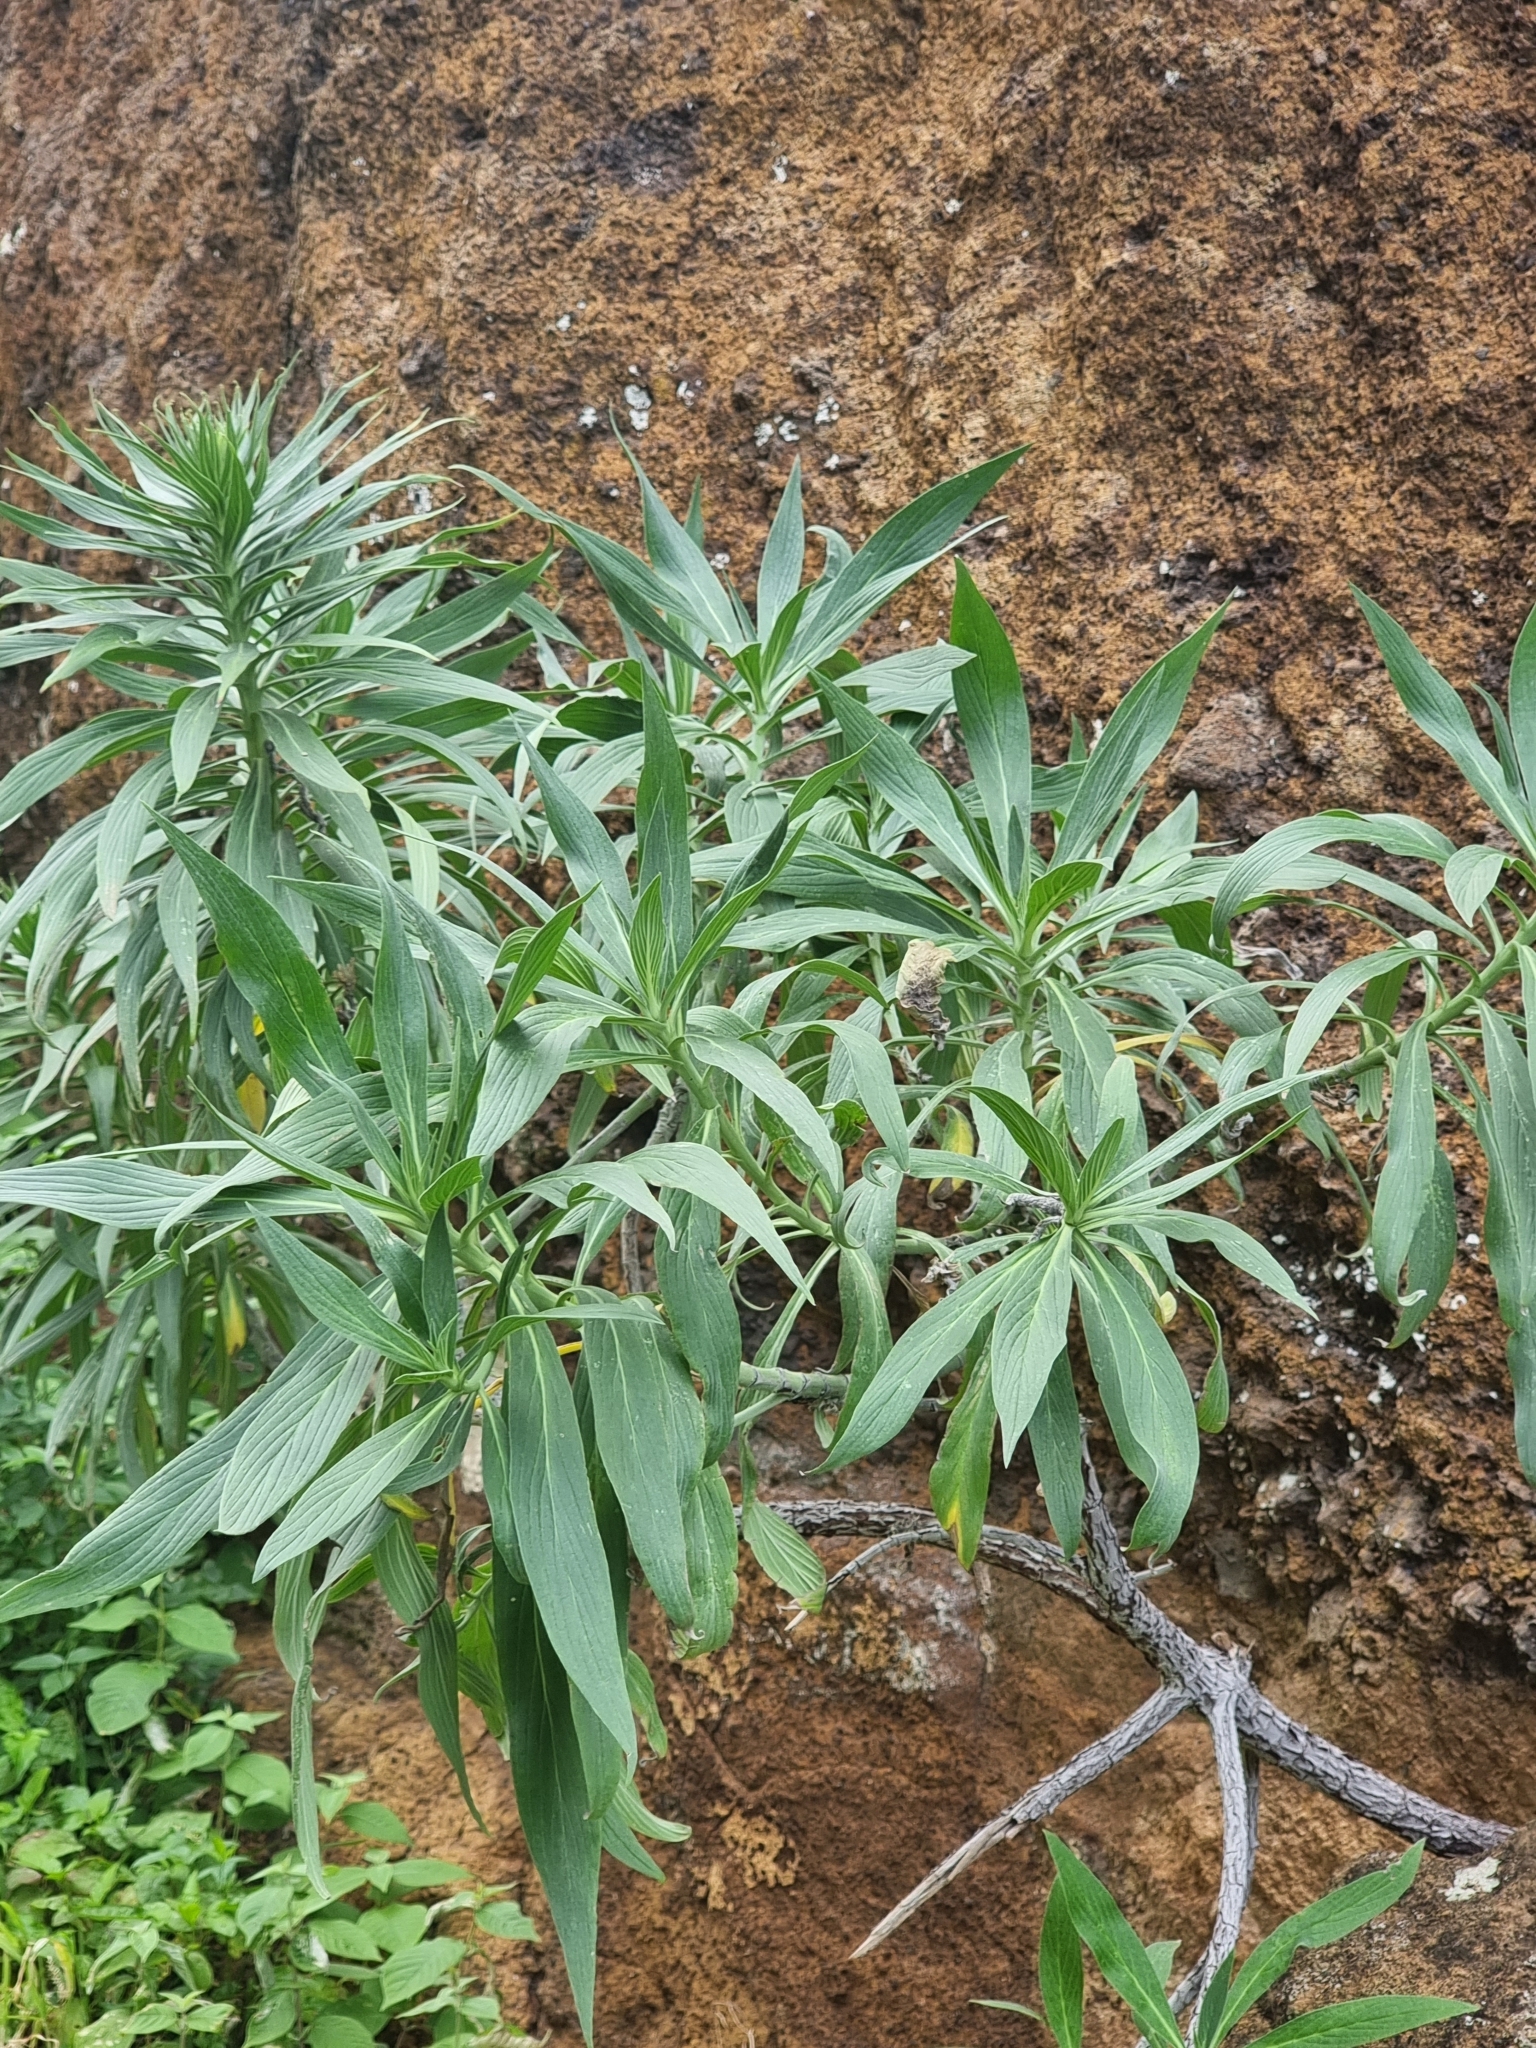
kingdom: Plantae
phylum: Tracheophyta
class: Magnoliopsida
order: Boraginales
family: Boraginaceae
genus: Echium
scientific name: Echium nervosum
